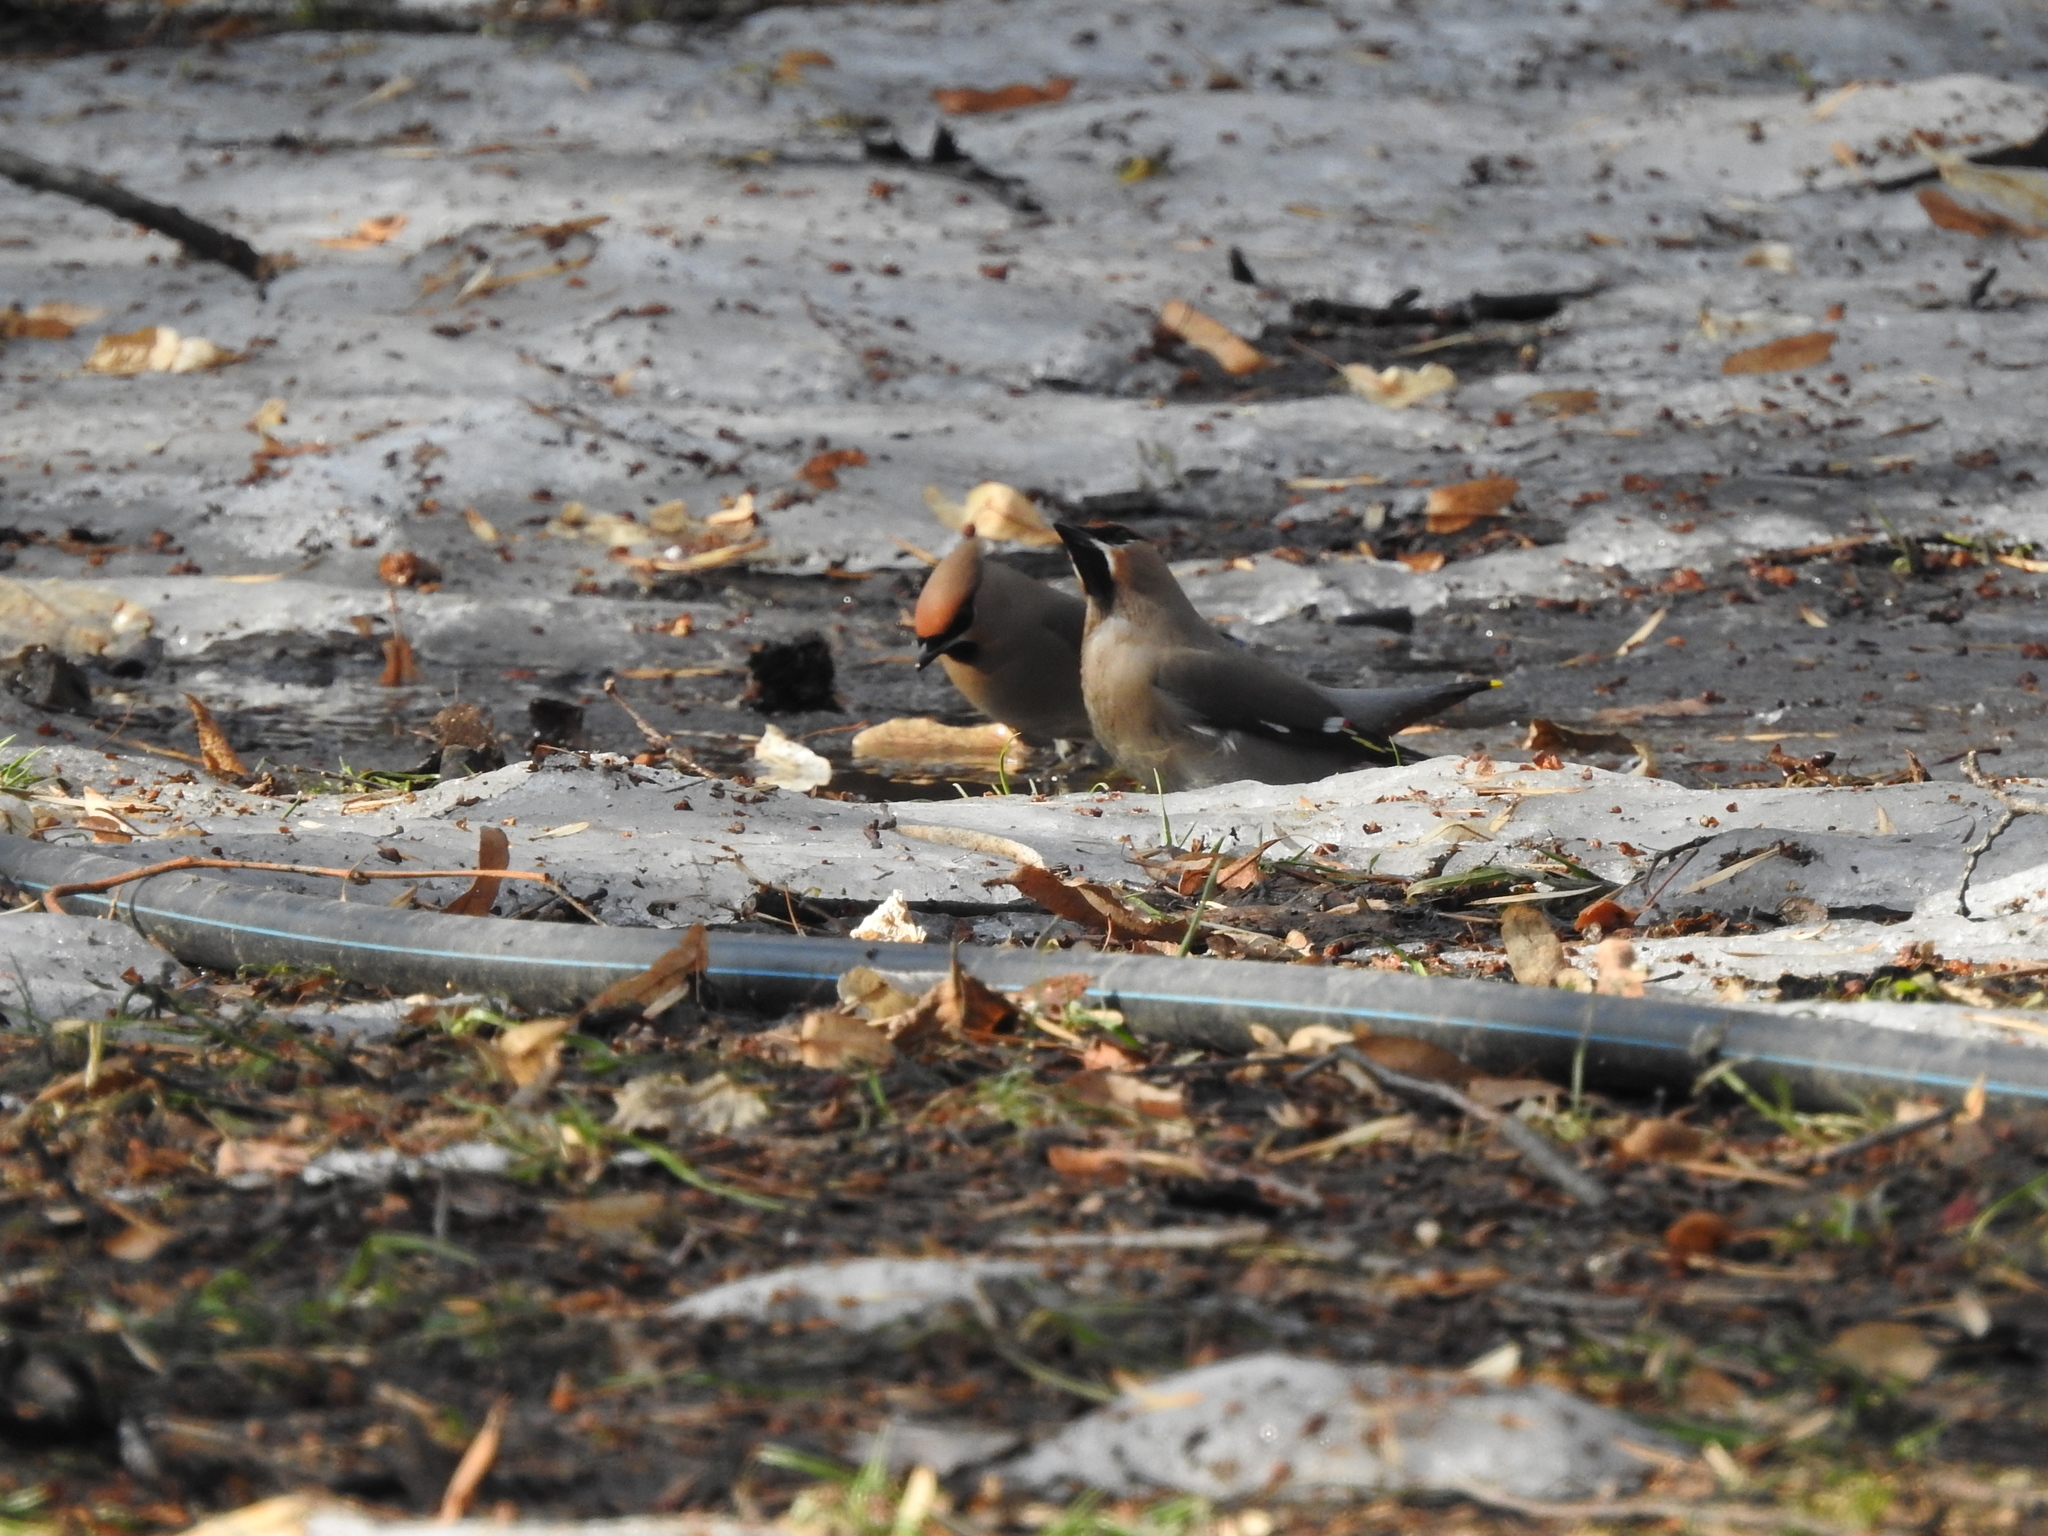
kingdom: Animalia
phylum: Chordata
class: Aves
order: Passeriformes
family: Bombycillidae
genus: Bombycilla
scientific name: Bombycilla garrulus
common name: Bohemian waxwing
